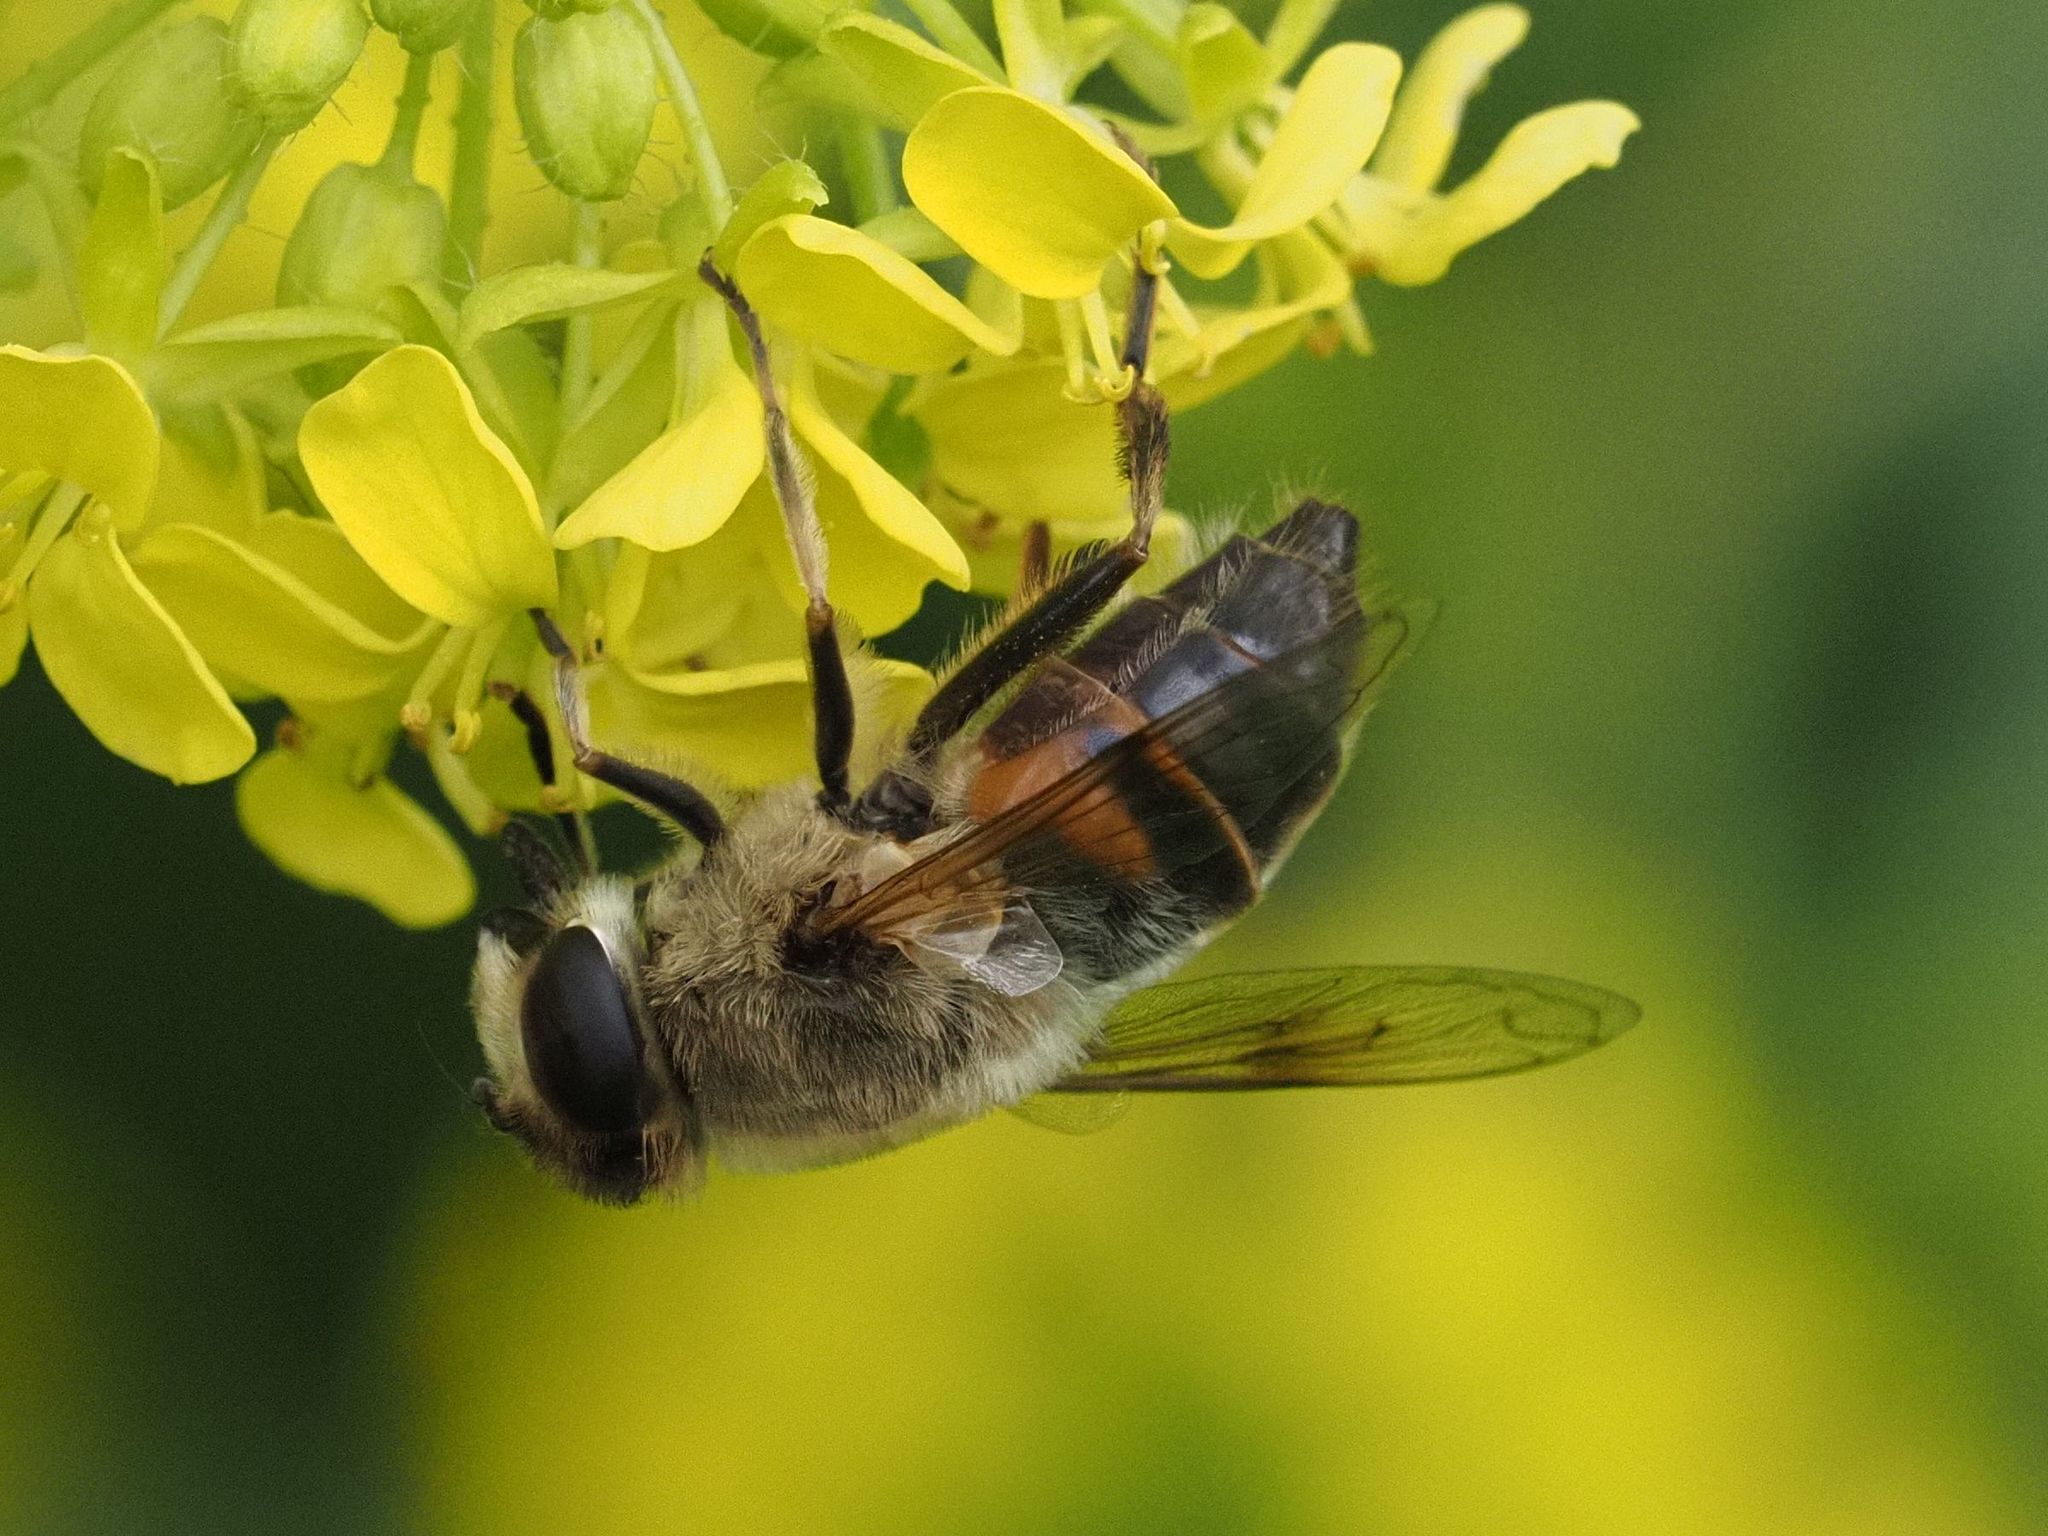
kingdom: Animalia
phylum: Arthropoda
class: Insecta
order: Diptera
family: Syrphidae
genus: Eristalis
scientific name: Eristalis tenax
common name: Drone fly
